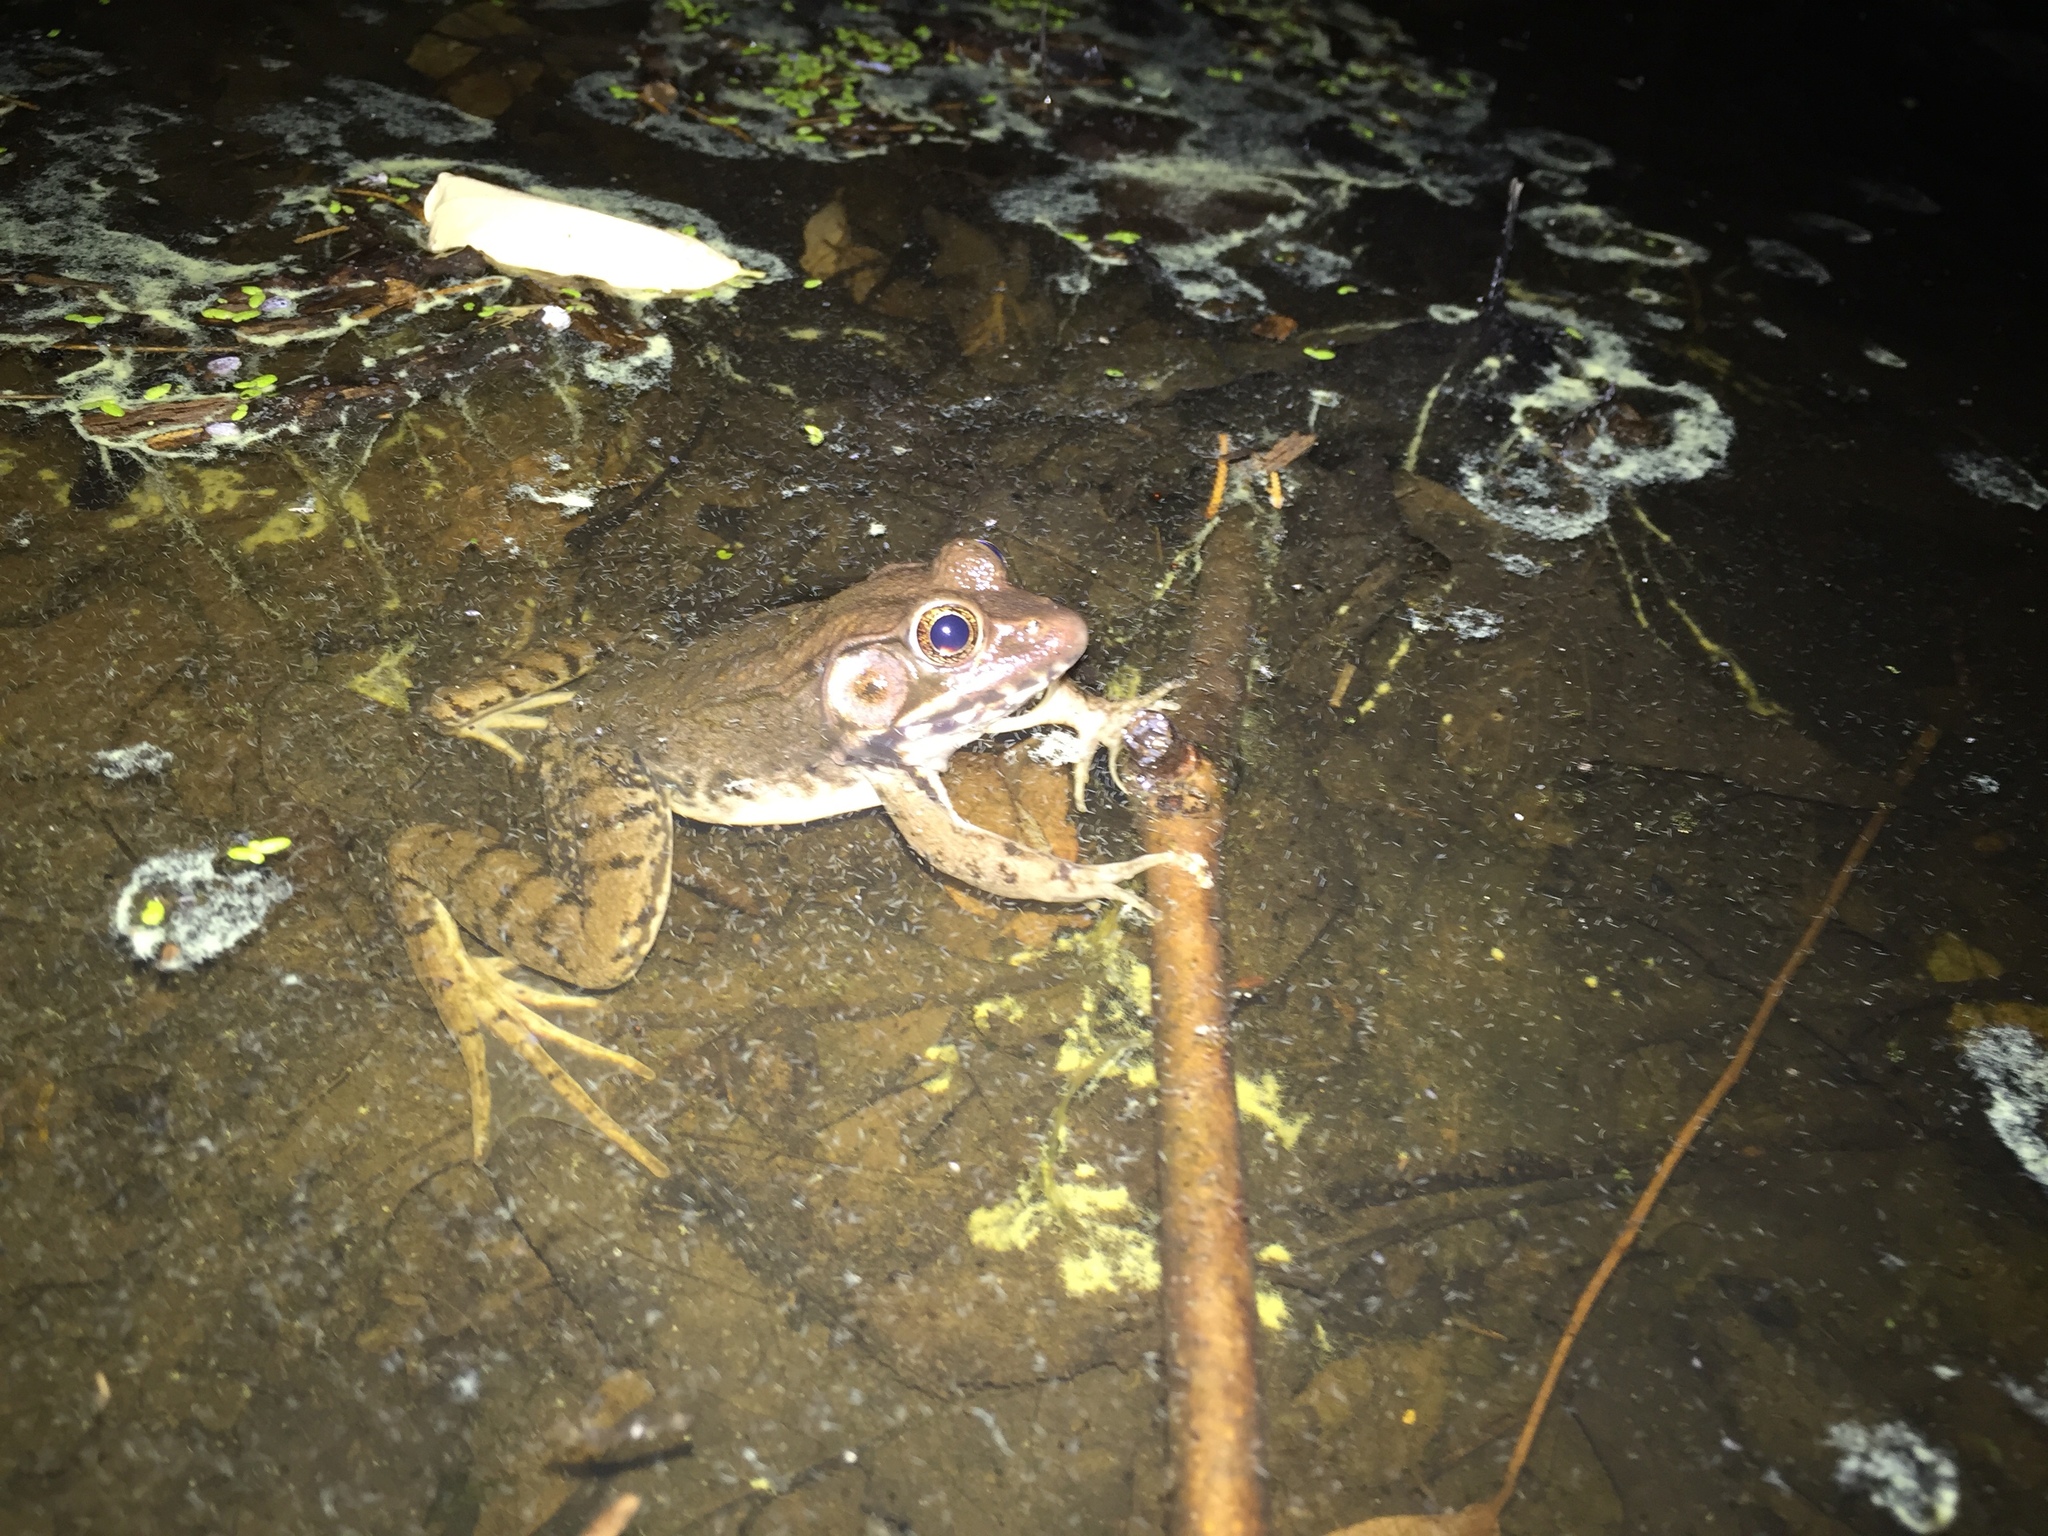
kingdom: Animalia
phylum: Chordata
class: Amphibia
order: Anura
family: Ranidae
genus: Lithobates
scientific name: Lithobates clamitans
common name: Green frog
